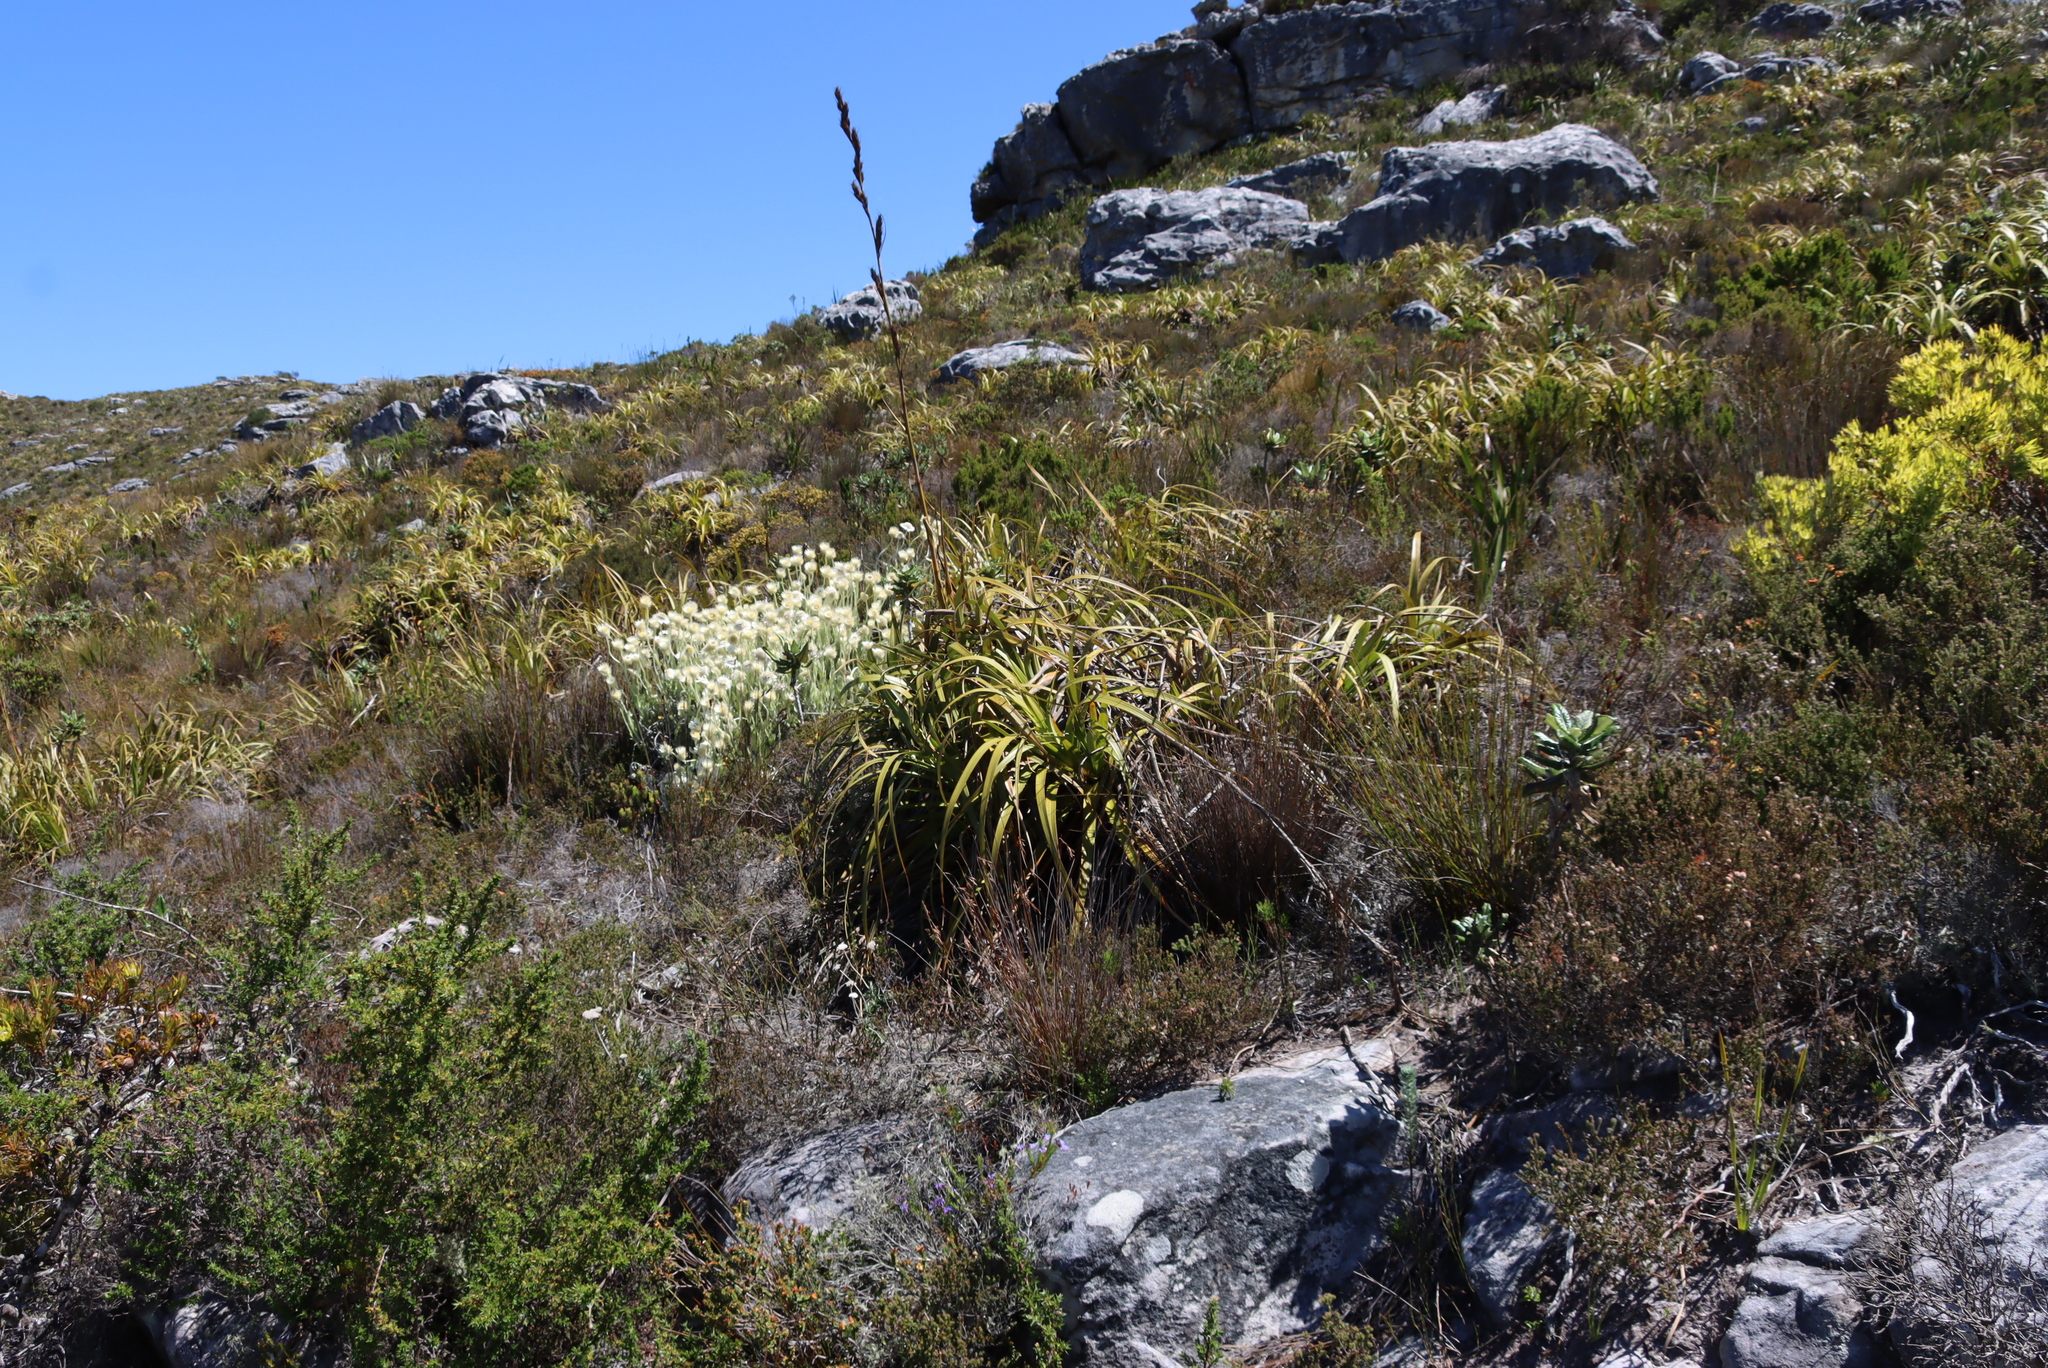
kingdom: Plantae
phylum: Tracheophyta
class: Liliopsida
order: Poales
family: Cyperaceae
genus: Tetraria
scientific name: Tetraria thermalis
